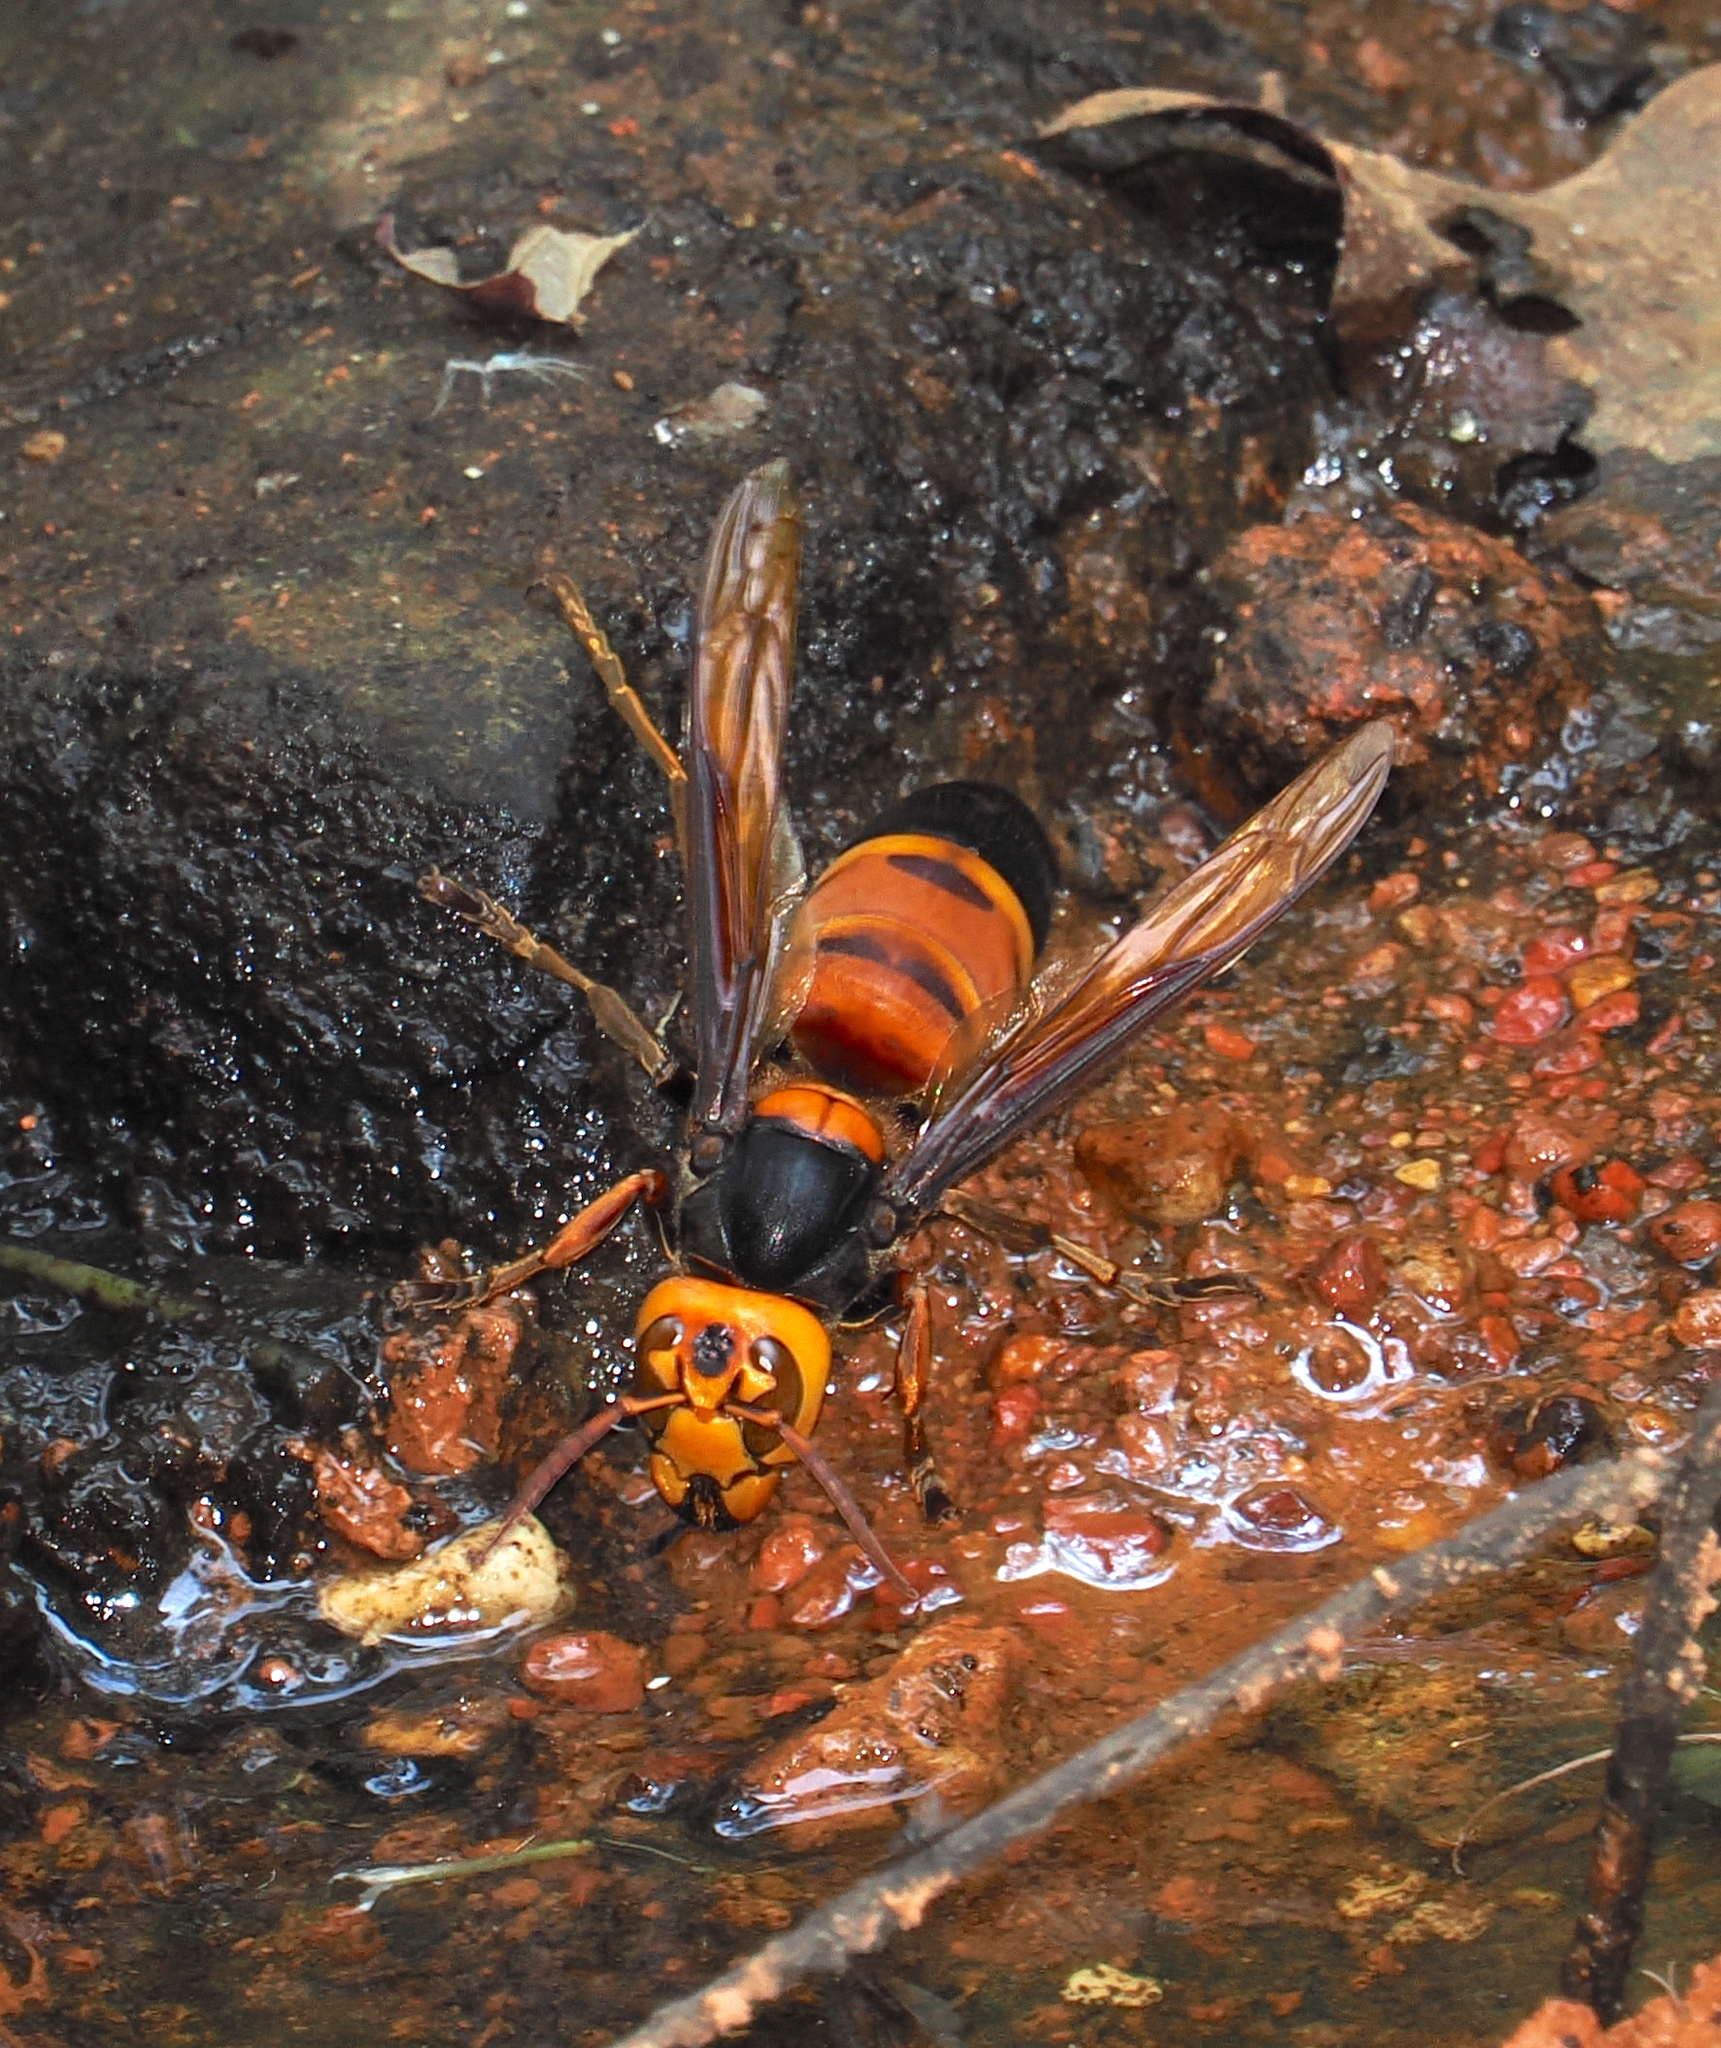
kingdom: Animalia
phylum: Arthropoda
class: Insecta
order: Hymenoptera
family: Vespidae
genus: Vespa
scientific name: Vespa soror
